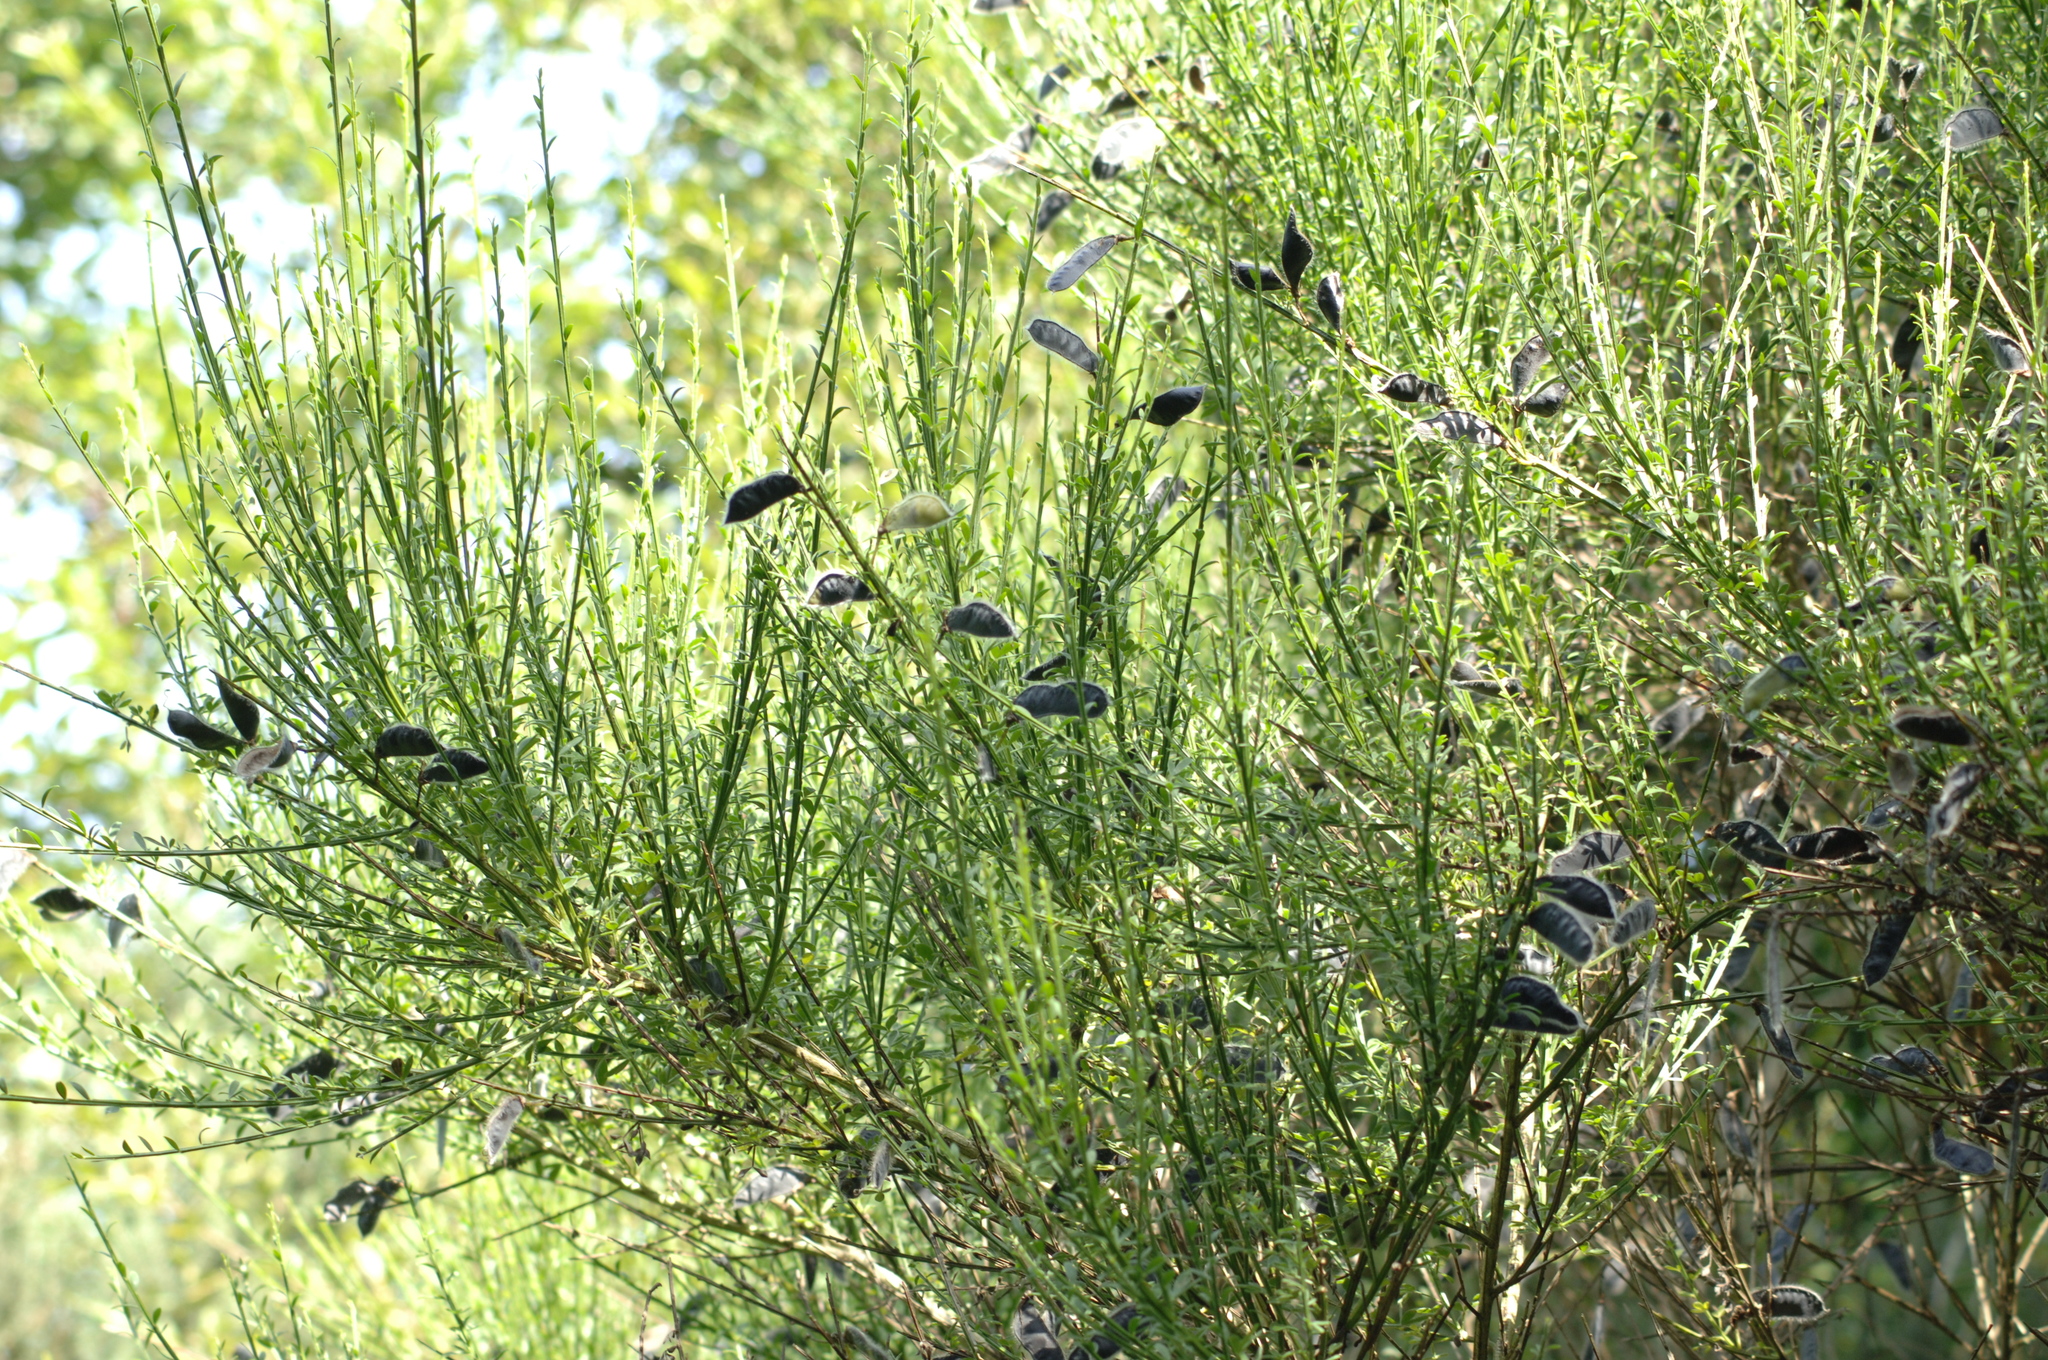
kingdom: Plantae
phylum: Tracheophyta
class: Magnoliopsida
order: Fabales
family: Fabaceae
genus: Cytisus
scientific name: Cytisus scoparius
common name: Scotch broom
